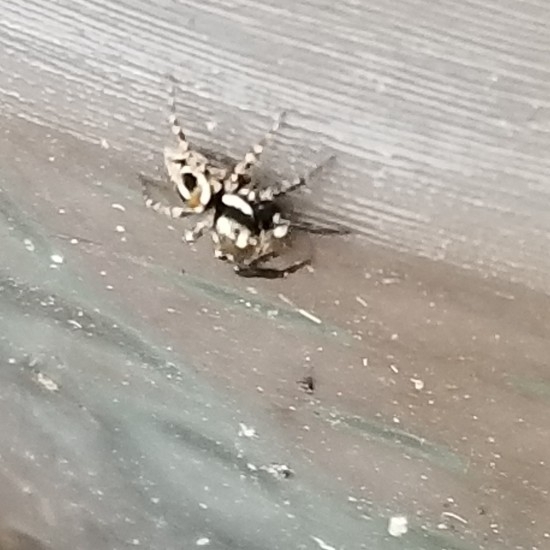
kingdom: Animalia
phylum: Arthropoda
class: Arachnida
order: Araneae
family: Salticidae
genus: Anasaitis
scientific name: Anasaitis canosa
